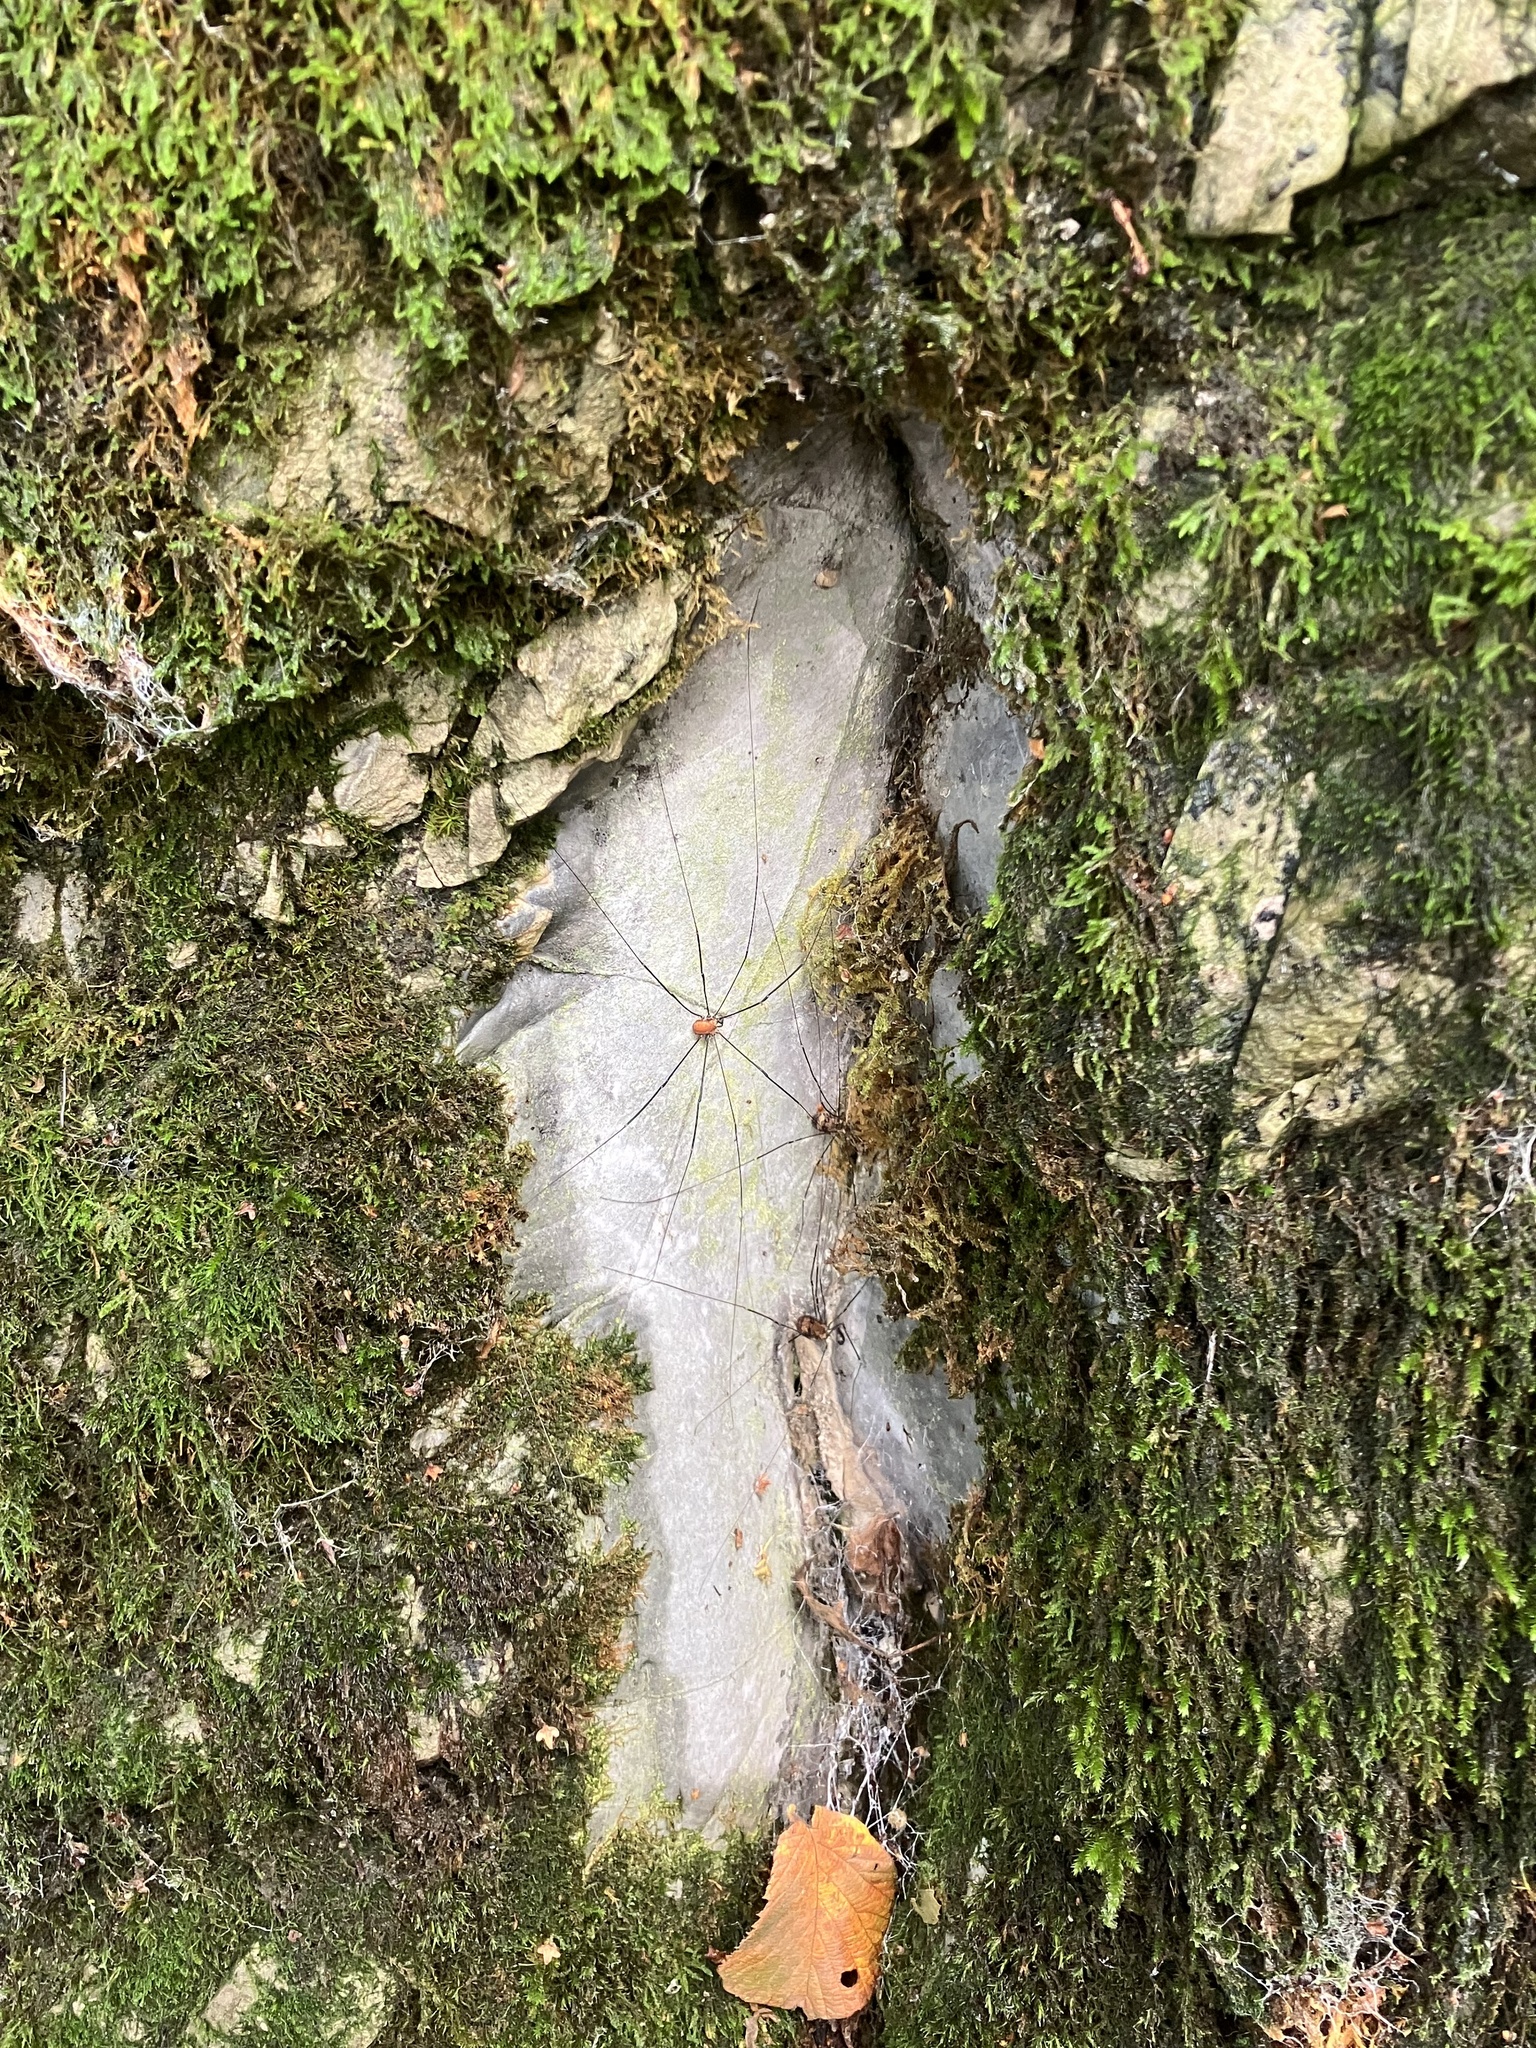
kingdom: Animalia
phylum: Arthropoda
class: Arachnida
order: Opiliones
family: Sclerosomatidae
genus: Leiobunum
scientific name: Leiobunum limbatum
